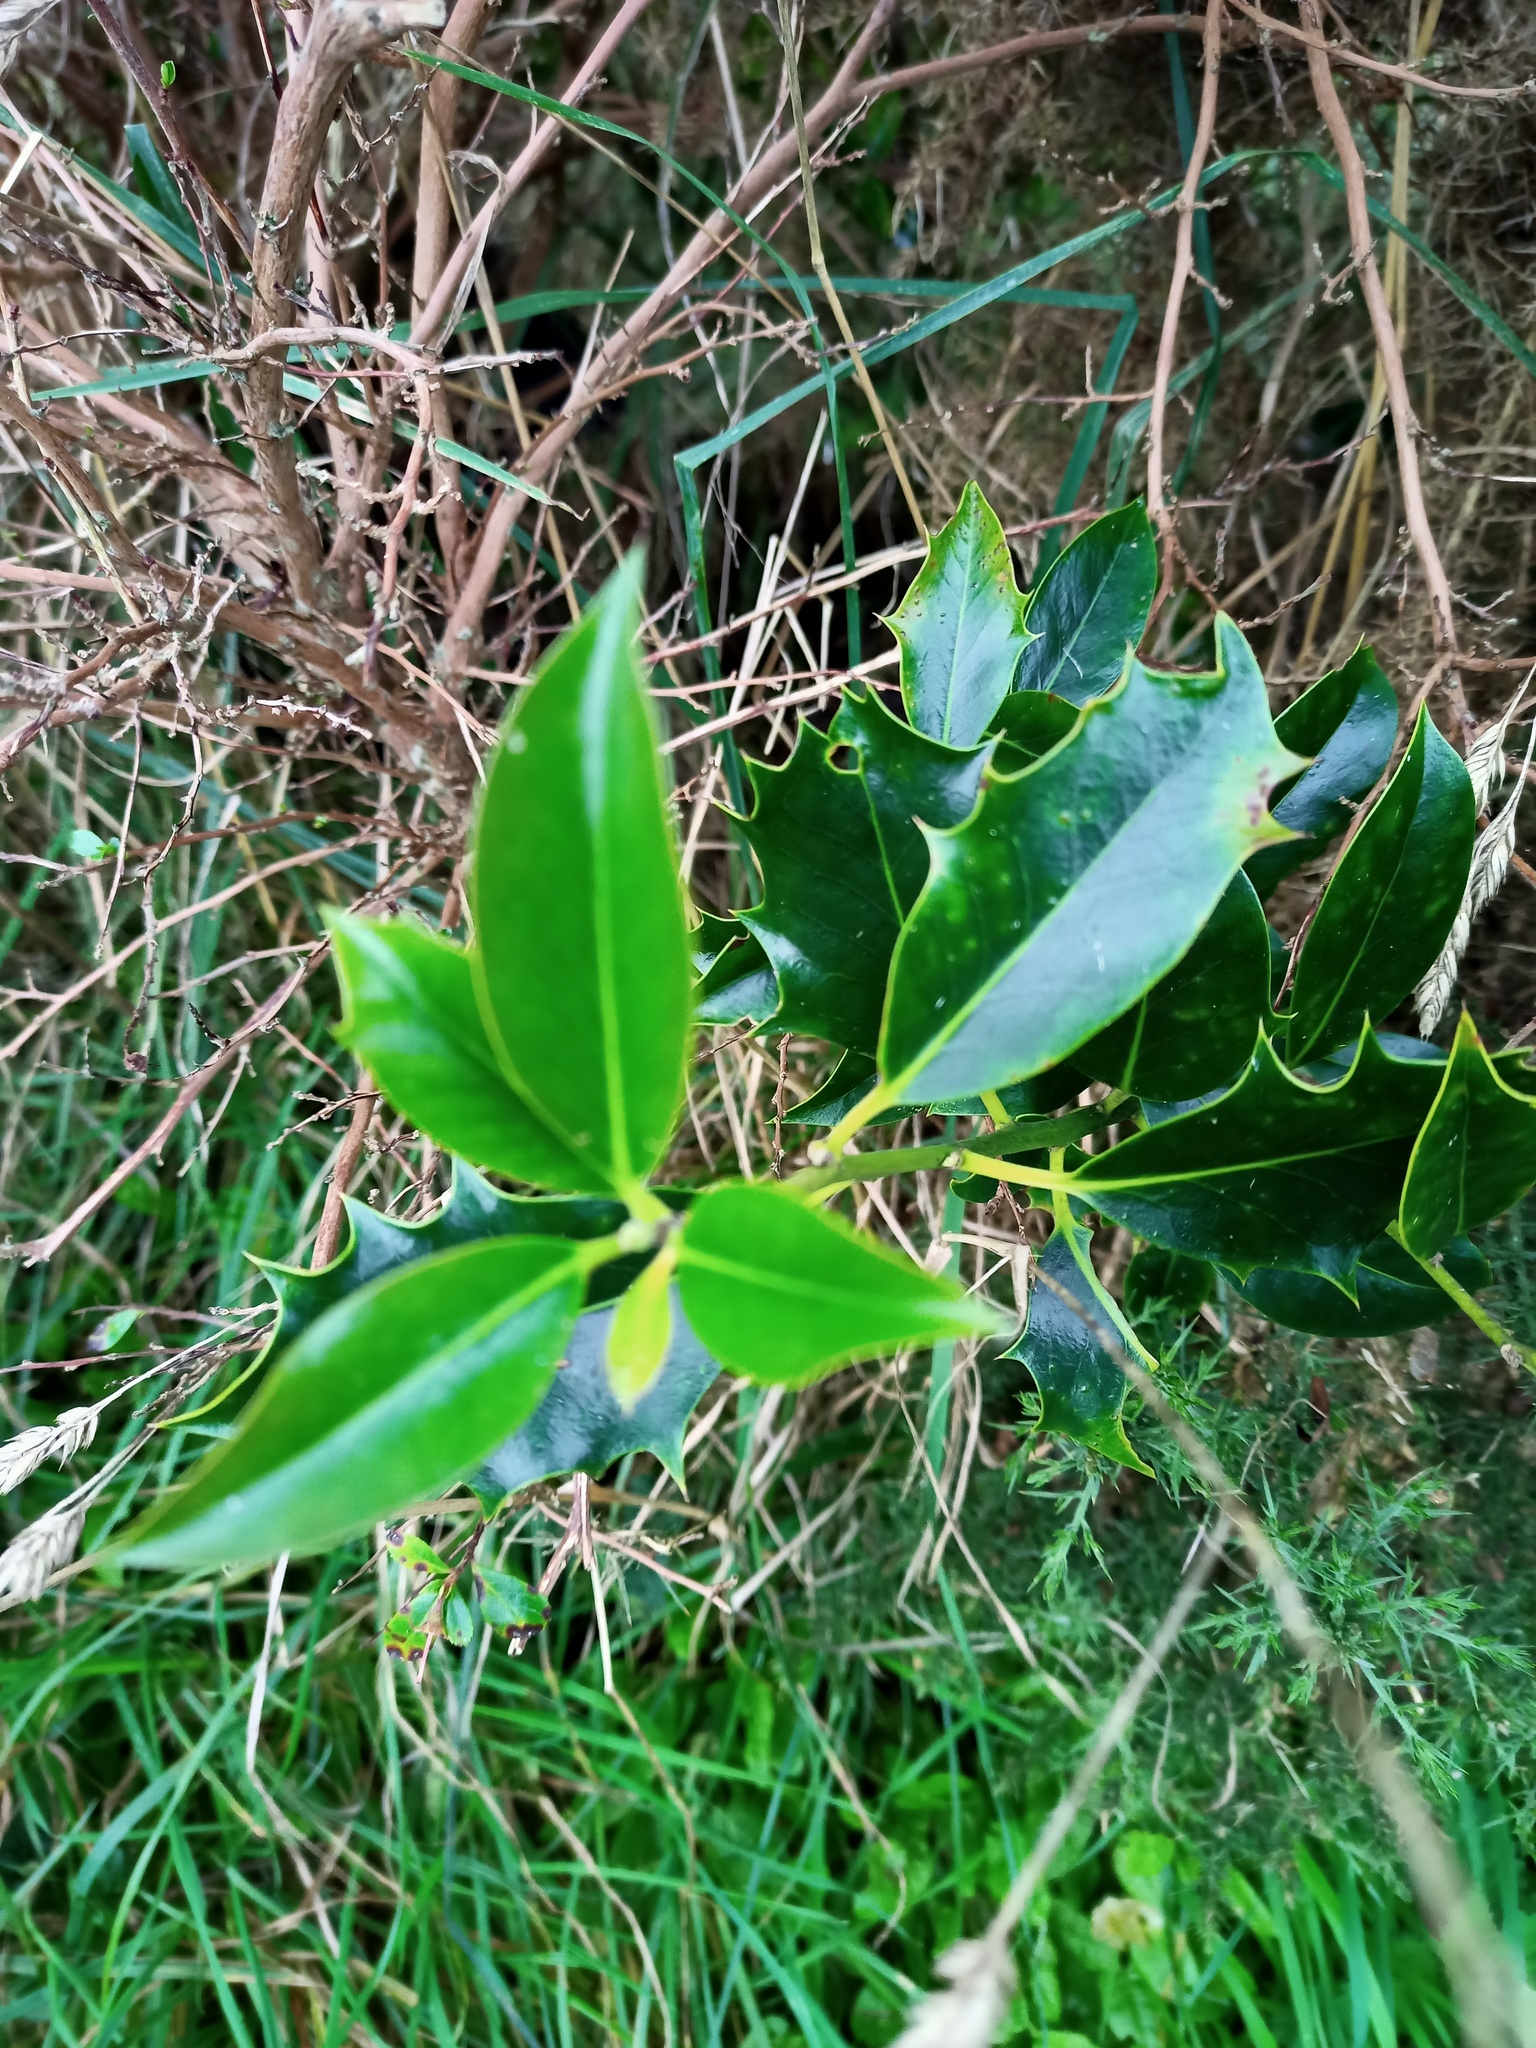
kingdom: Plantae
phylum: Tracheophyta
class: Magnoliopsida
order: Aquifoliales
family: Aquifoliaceae
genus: Ilex
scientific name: Ilex aquifolium
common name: English holly
